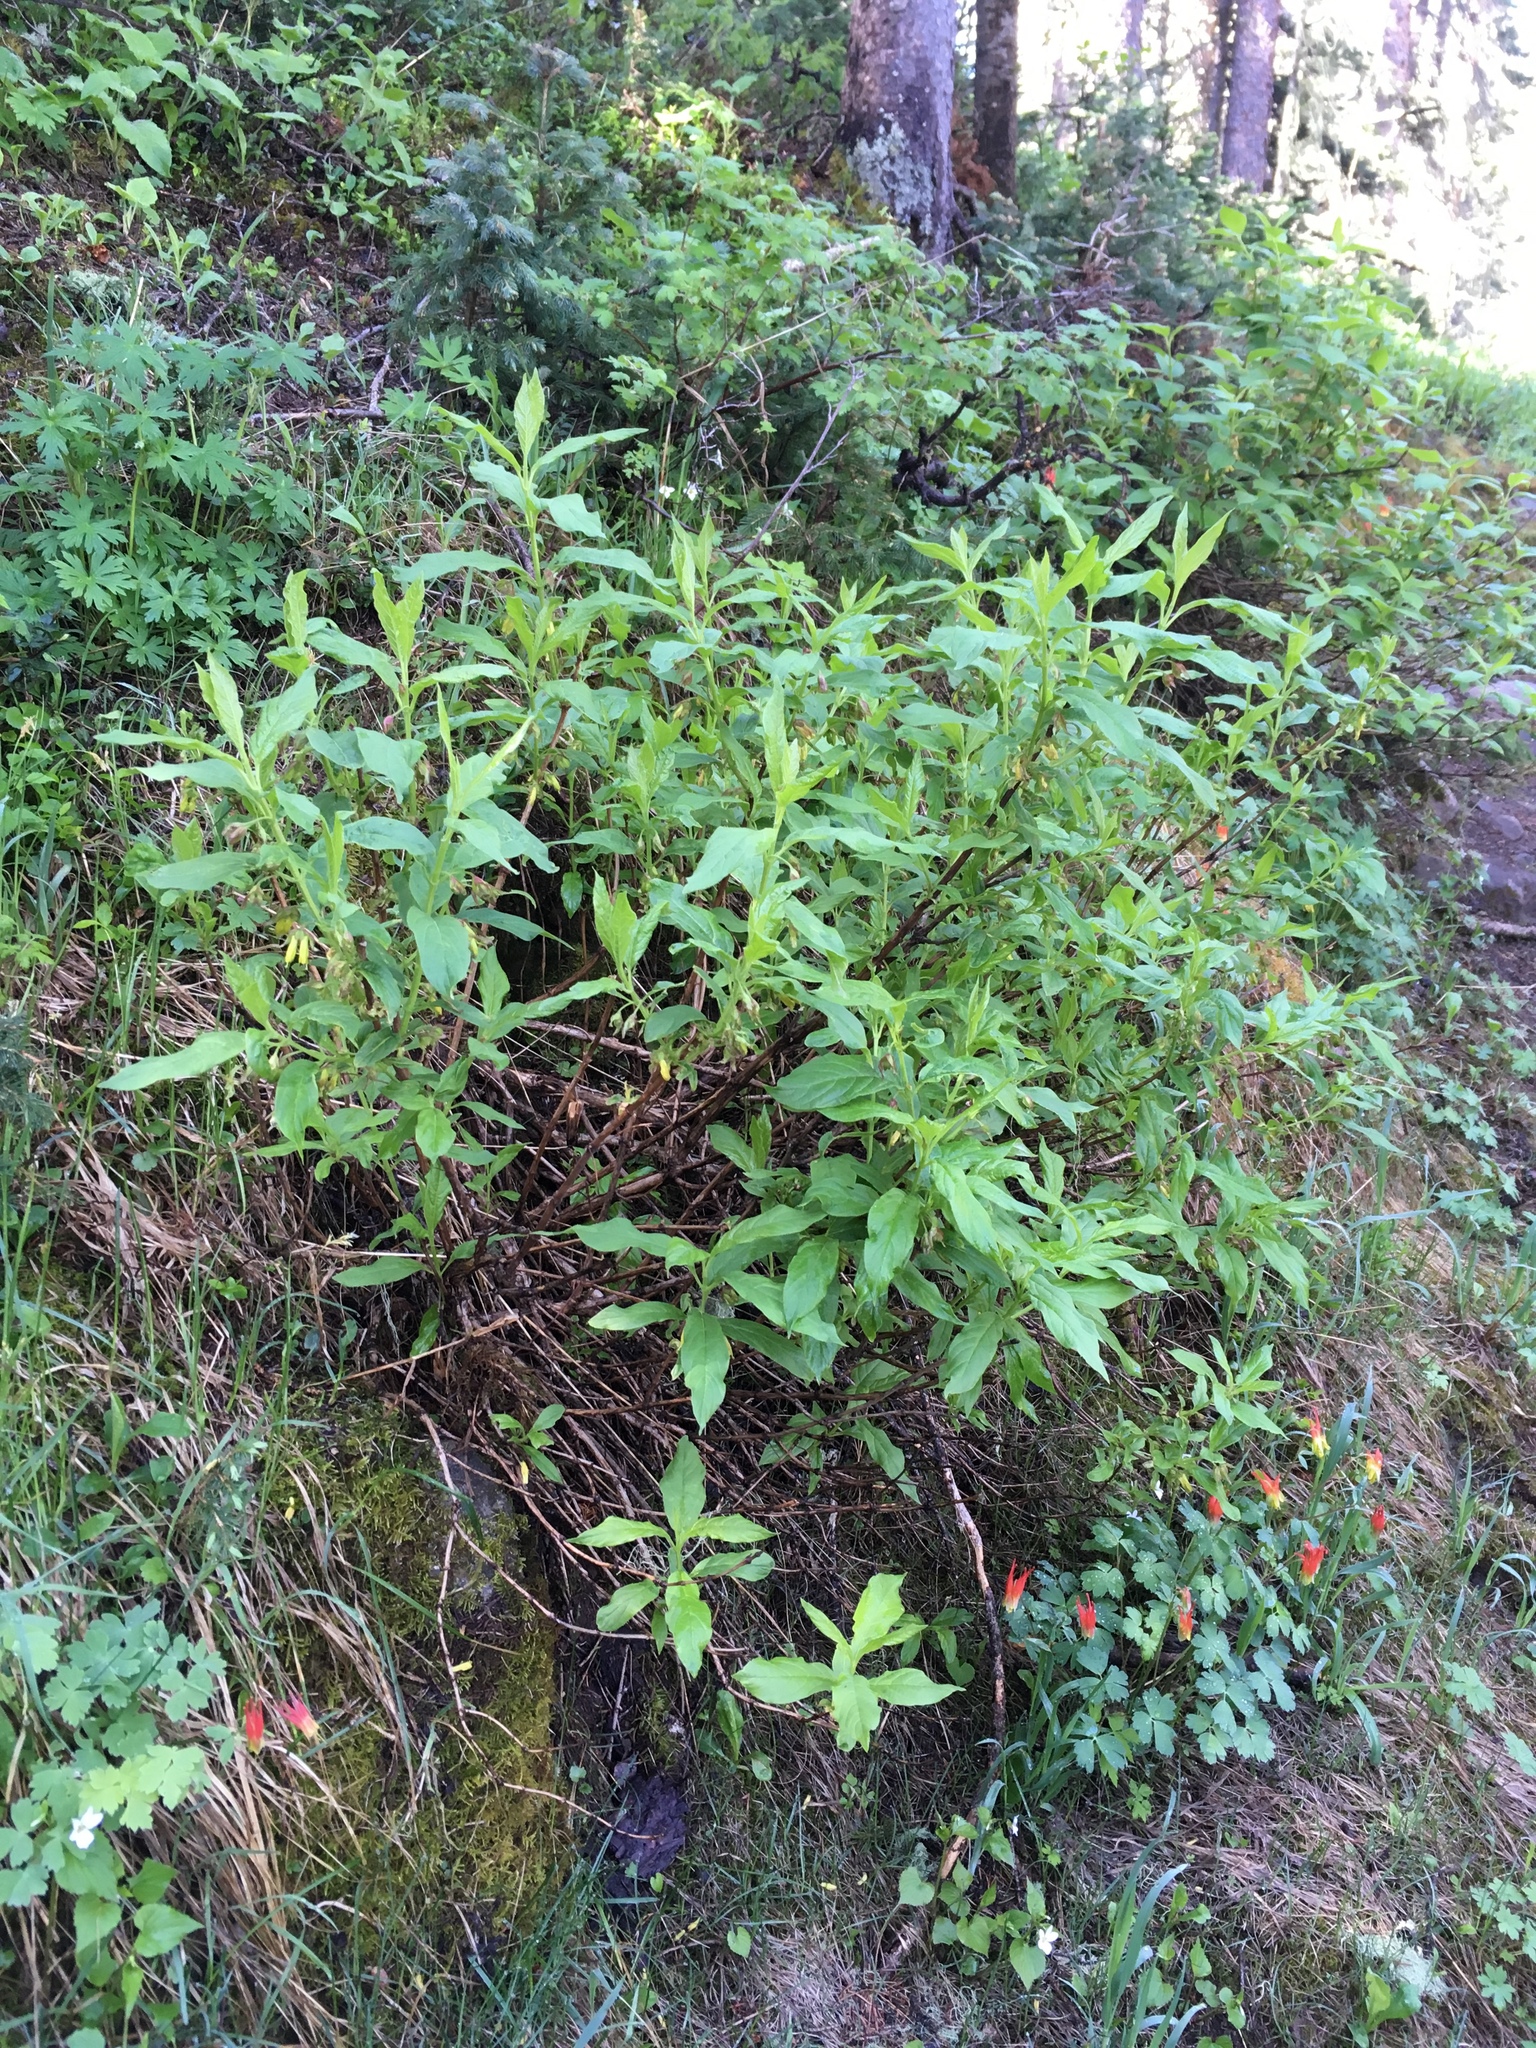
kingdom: Plantae
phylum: Tracheophyta
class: Magnoliopsida
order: Dipsacales
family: Caprifoliaceae
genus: Lonicera
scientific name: Lonicera involucrata
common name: Californian honeysuckle
